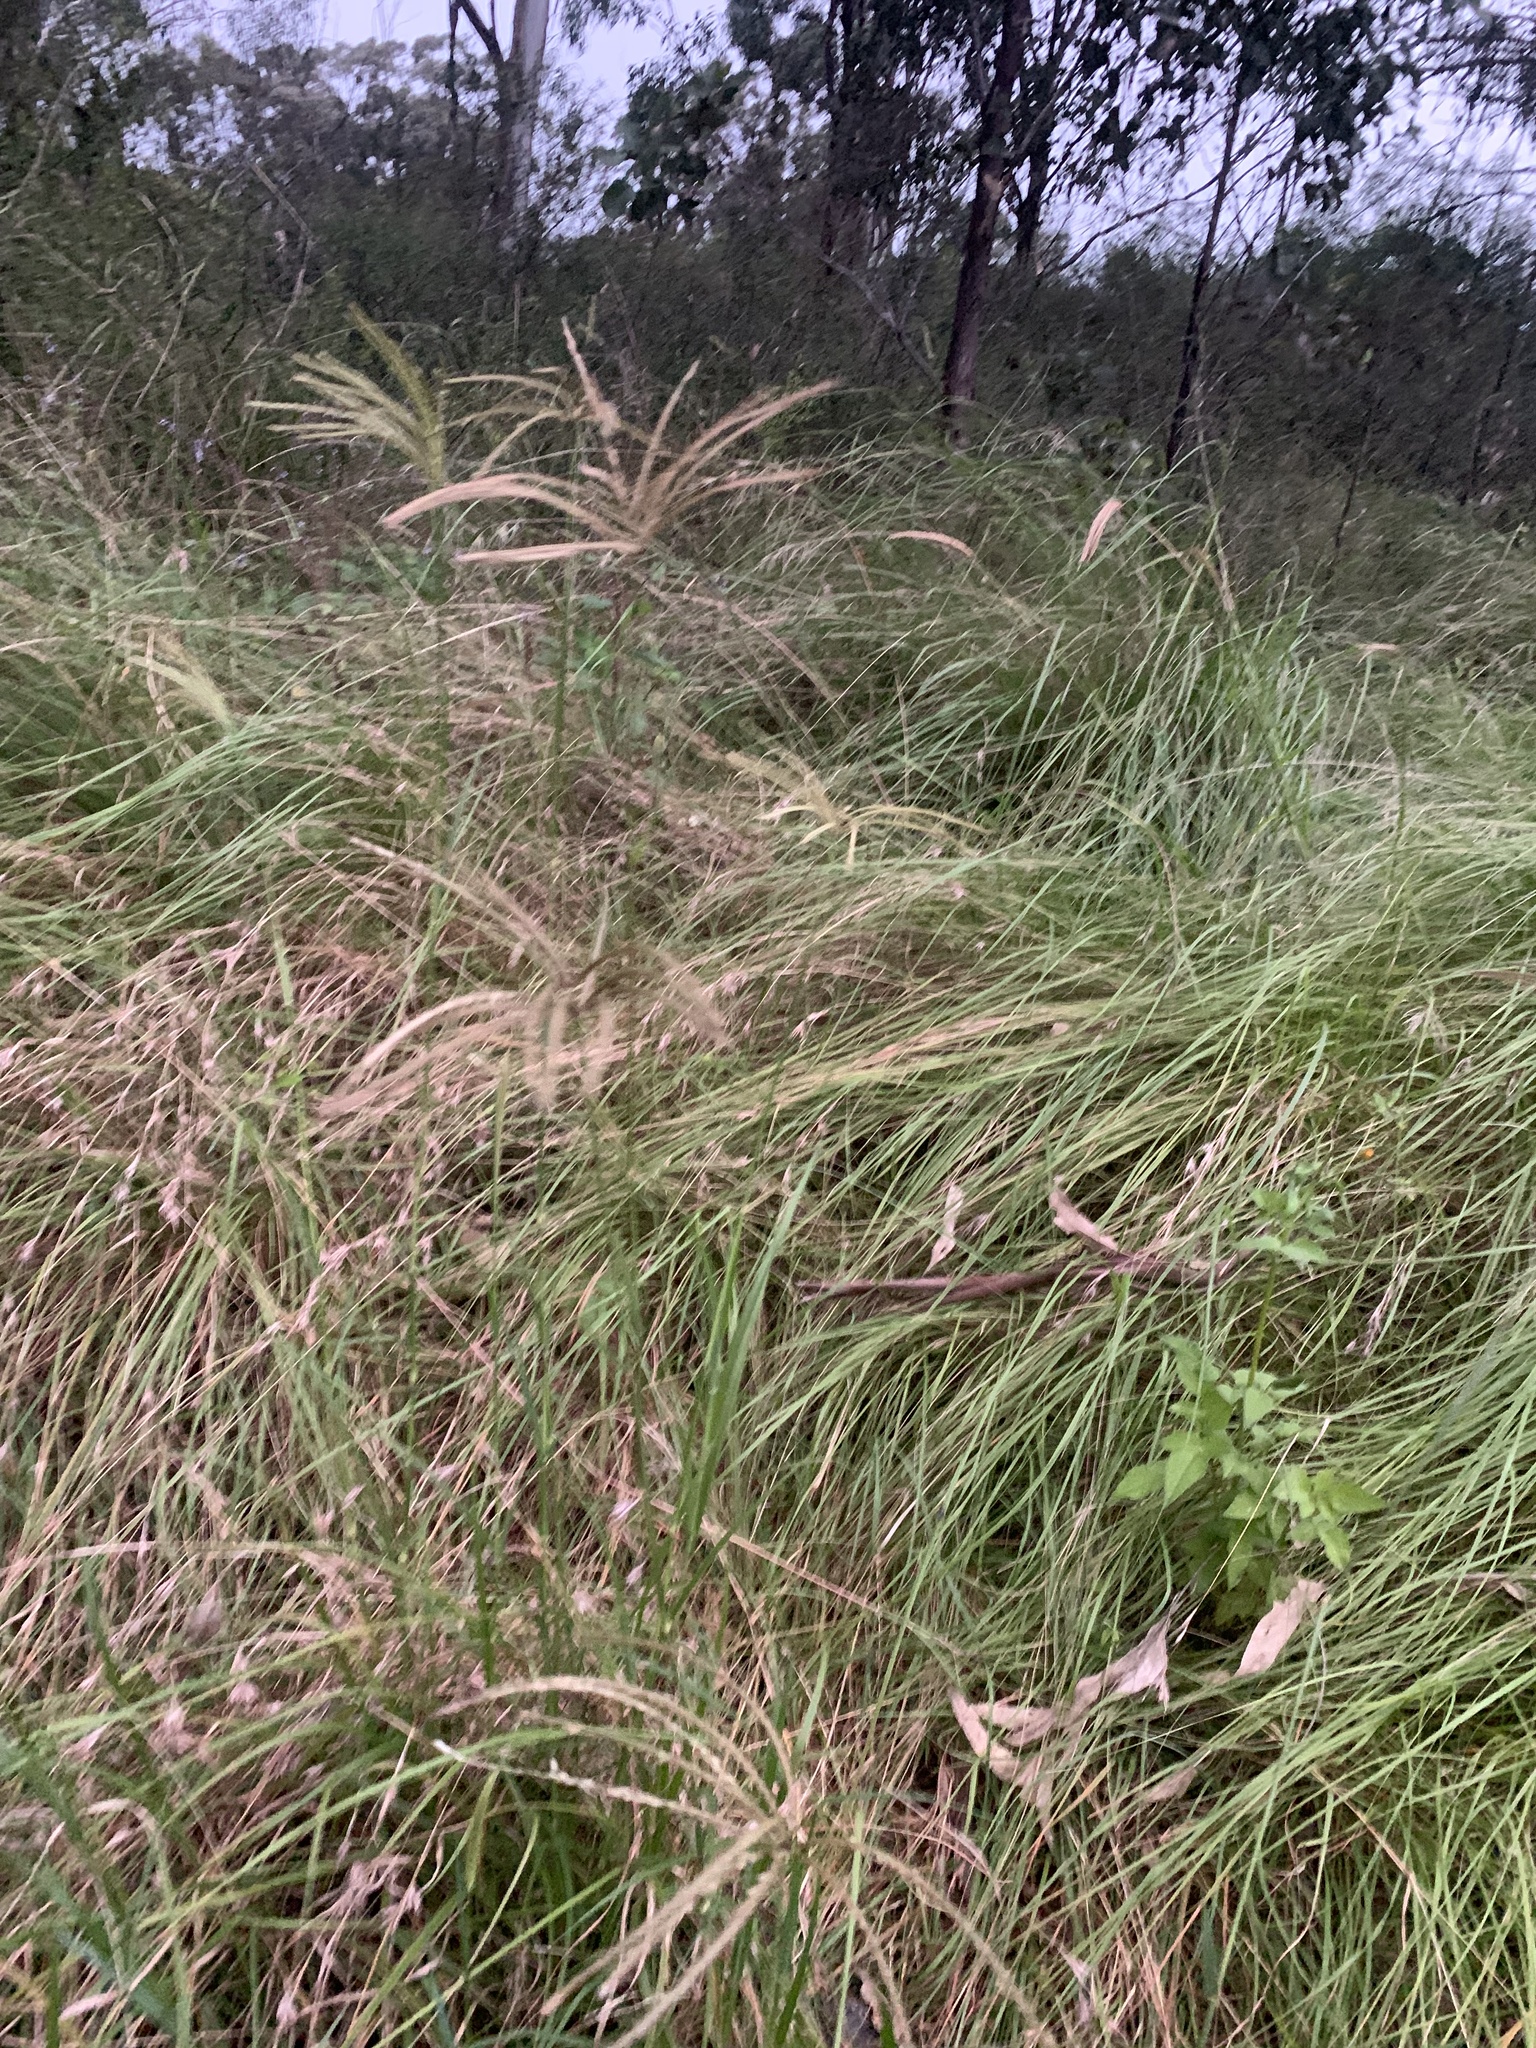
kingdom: Plantae
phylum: Tracheophyta
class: Liliopsida
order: Poales
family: Poaceae
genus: Chloris
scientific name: Chloris gayana
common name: Rhodes grass
